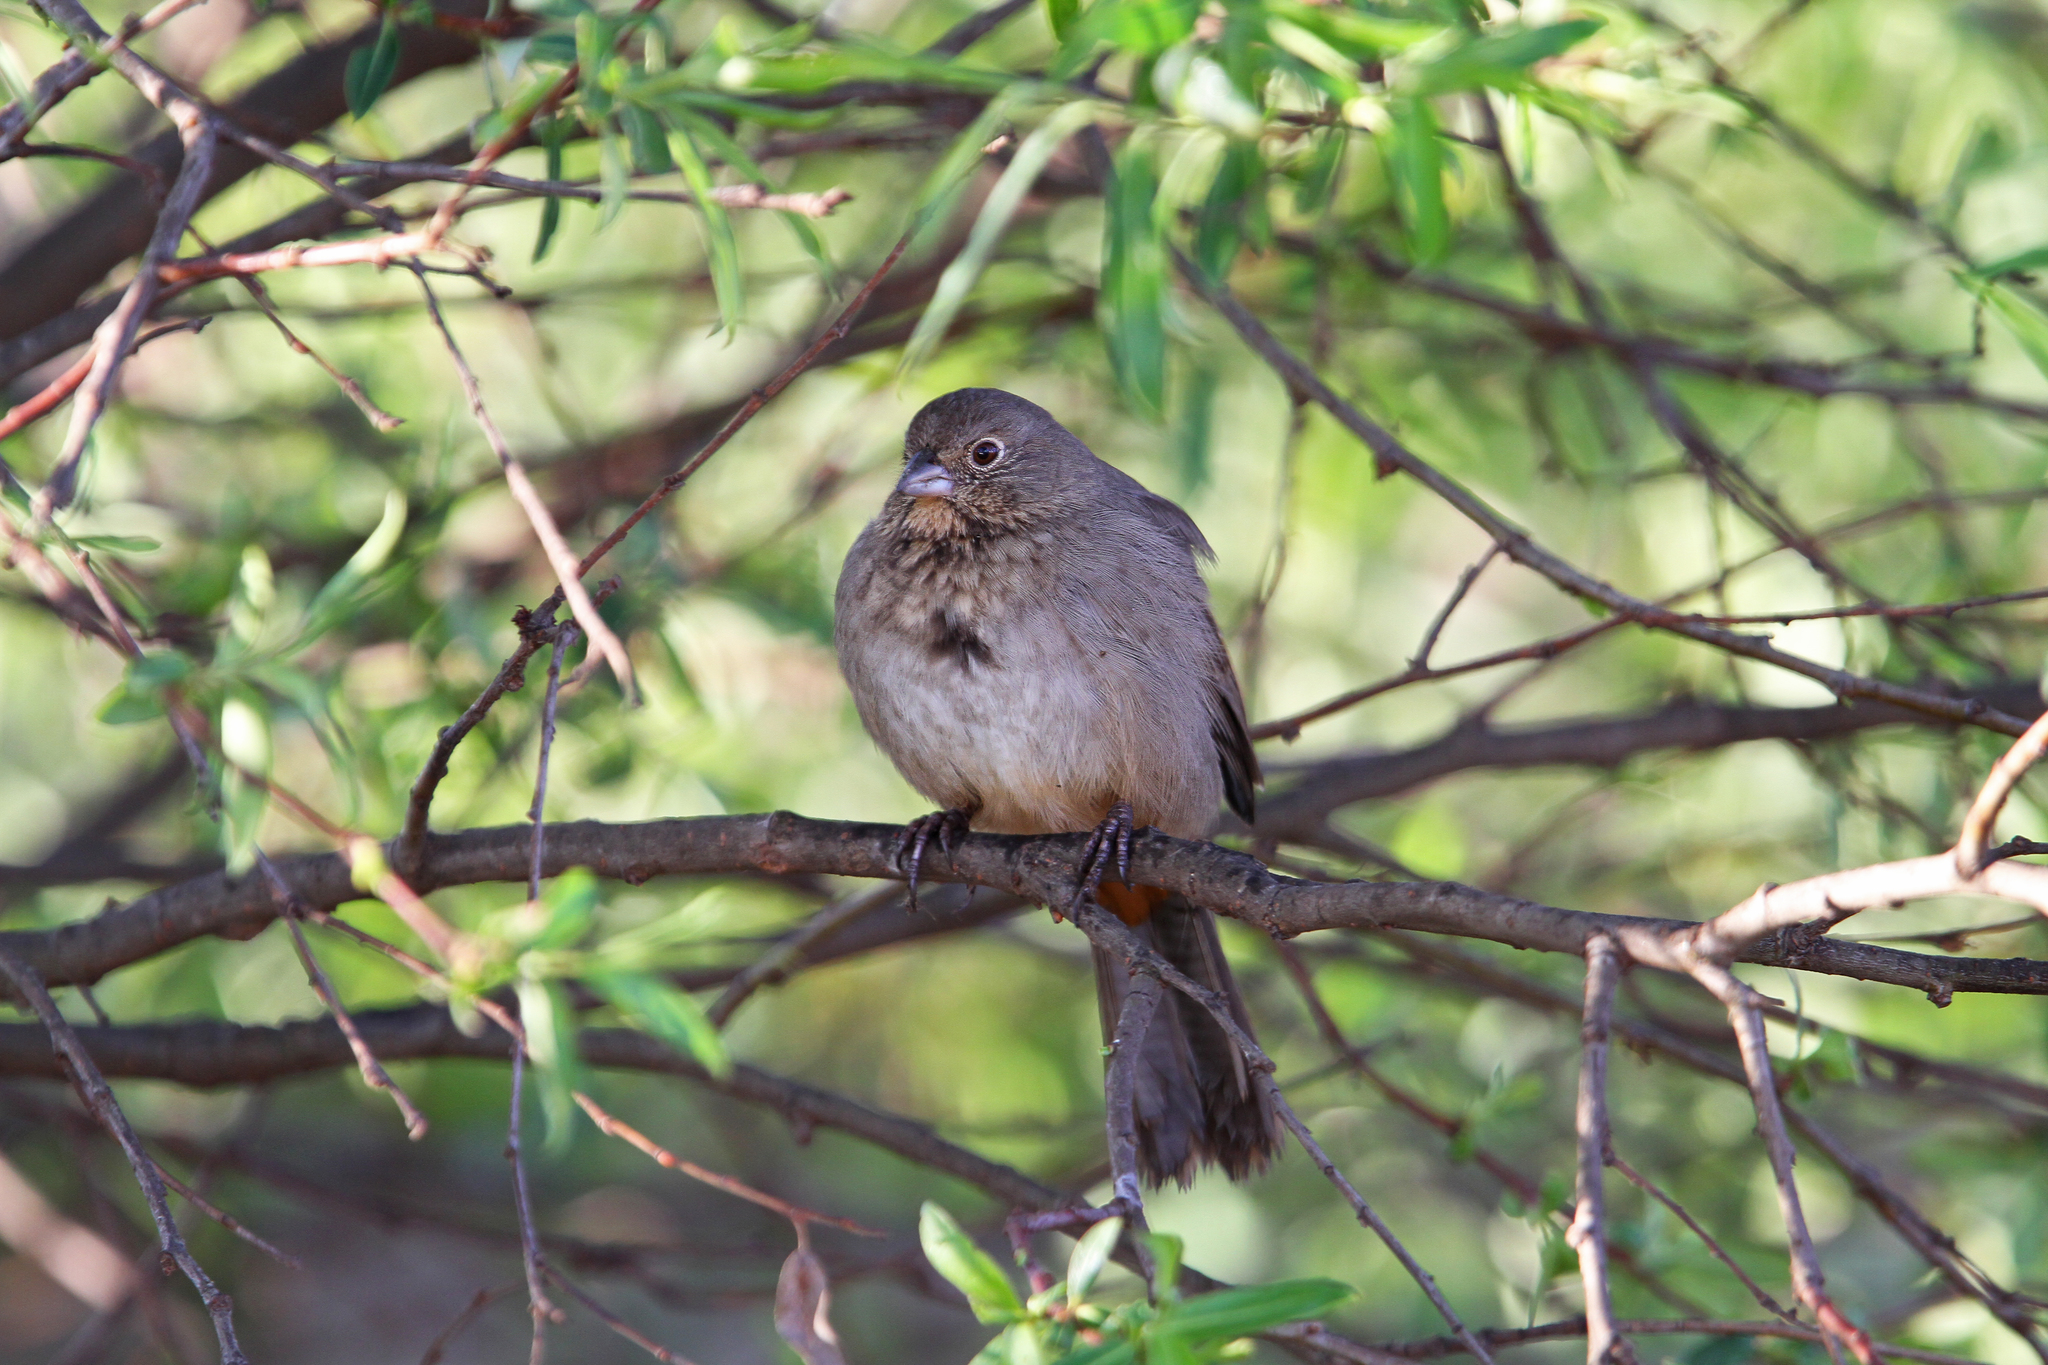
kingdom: Animalia
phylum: Chordata
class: Aves
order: Passeriformes
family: Passerellidae
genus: Melozone
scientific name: Melozone fusca
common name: Canyon towhee
